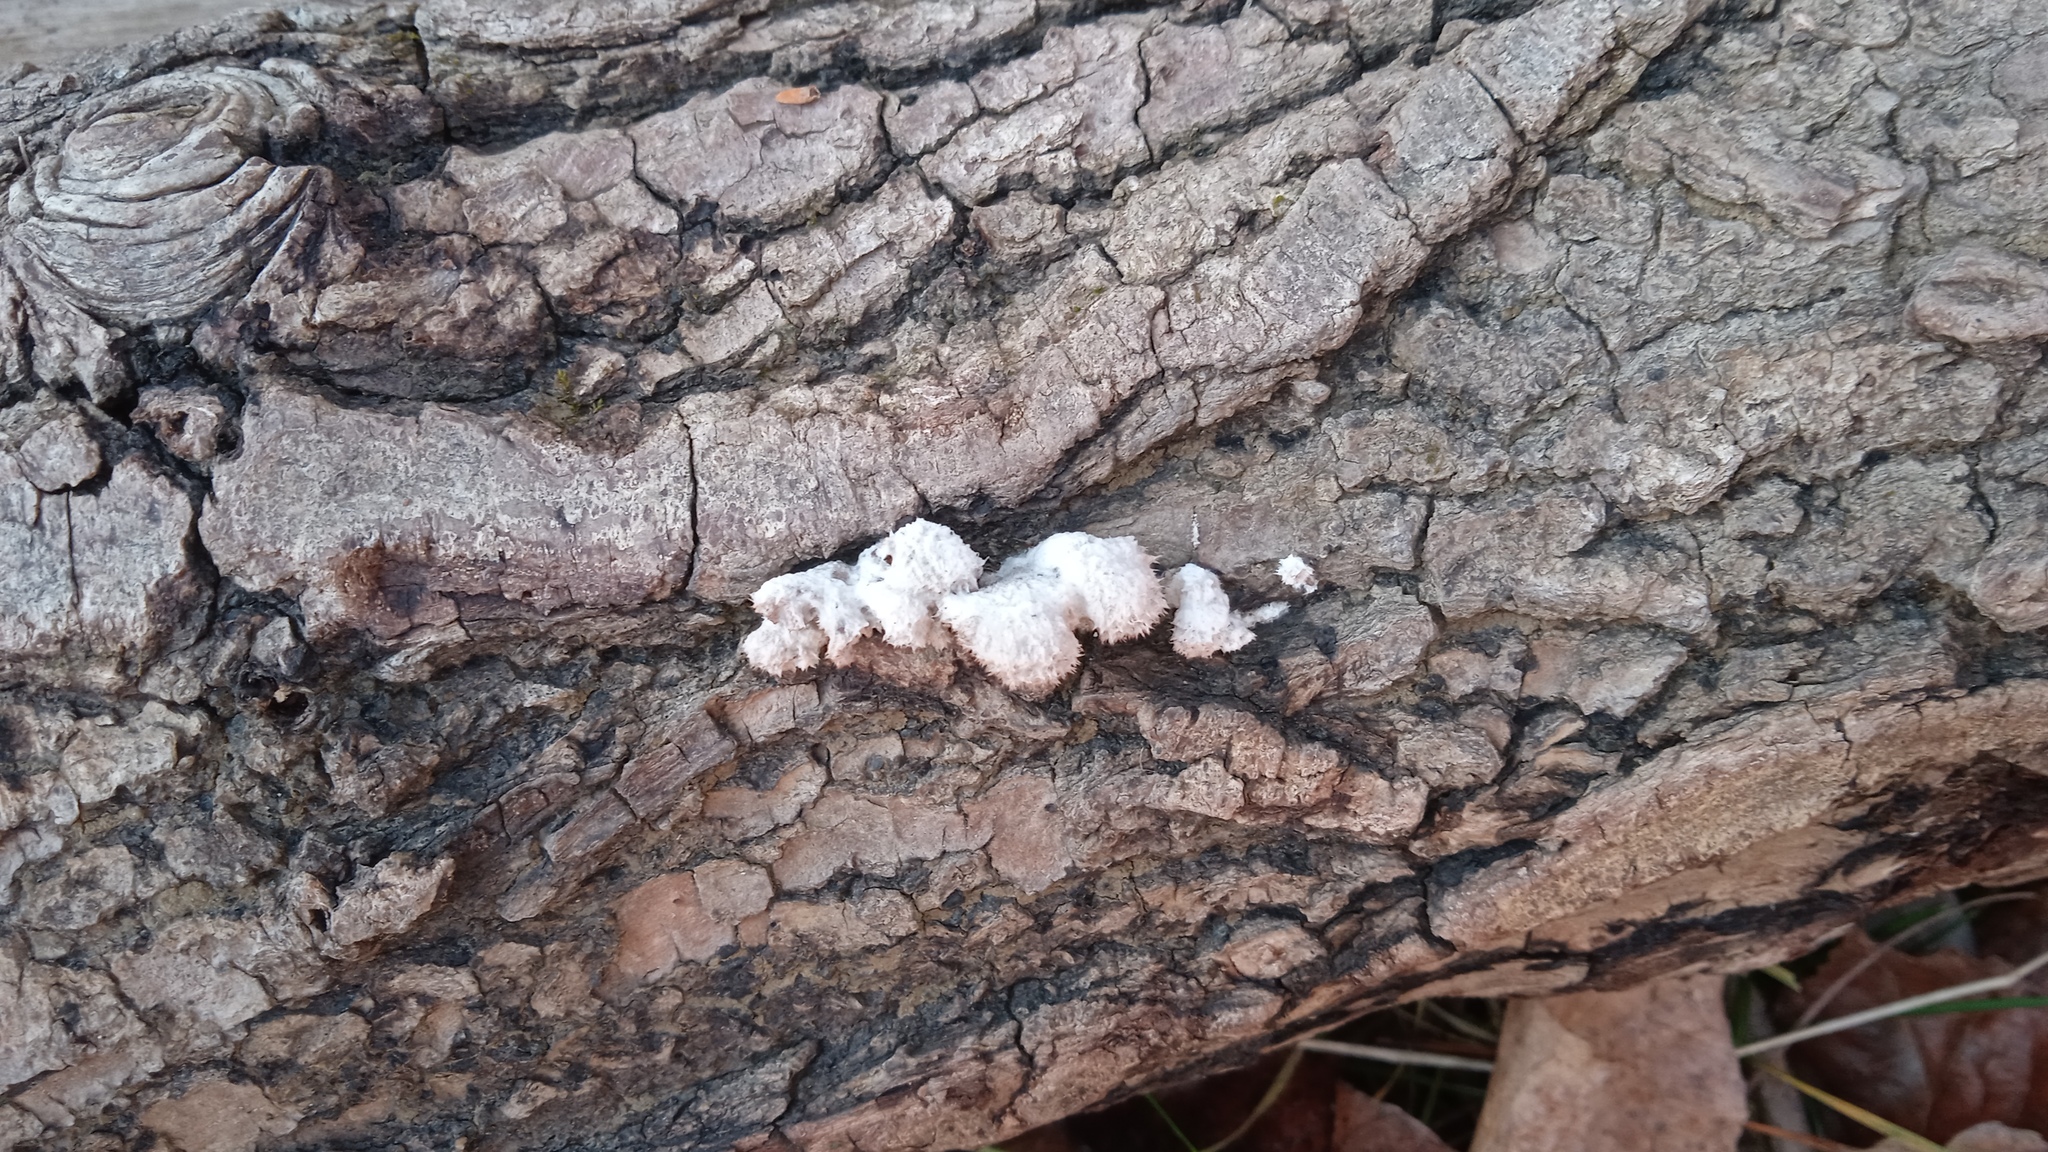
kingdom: Fungi
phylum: Basidiomycota
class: Agaricomycetes
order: Agaricales
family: Schizophyllaceae
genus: Schizophyllum
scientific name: Schizophyllum commune
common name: Common porecrust
